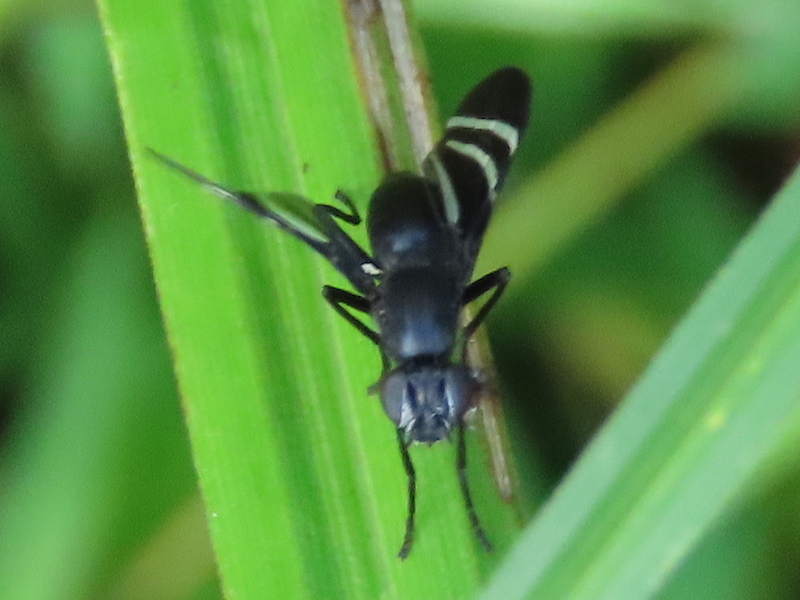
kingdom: Animalia
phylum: Arthropoda
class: Insecta
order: Diptera
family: Ulidiidae
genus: Tritoxa
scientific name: Tritoxa flexa
